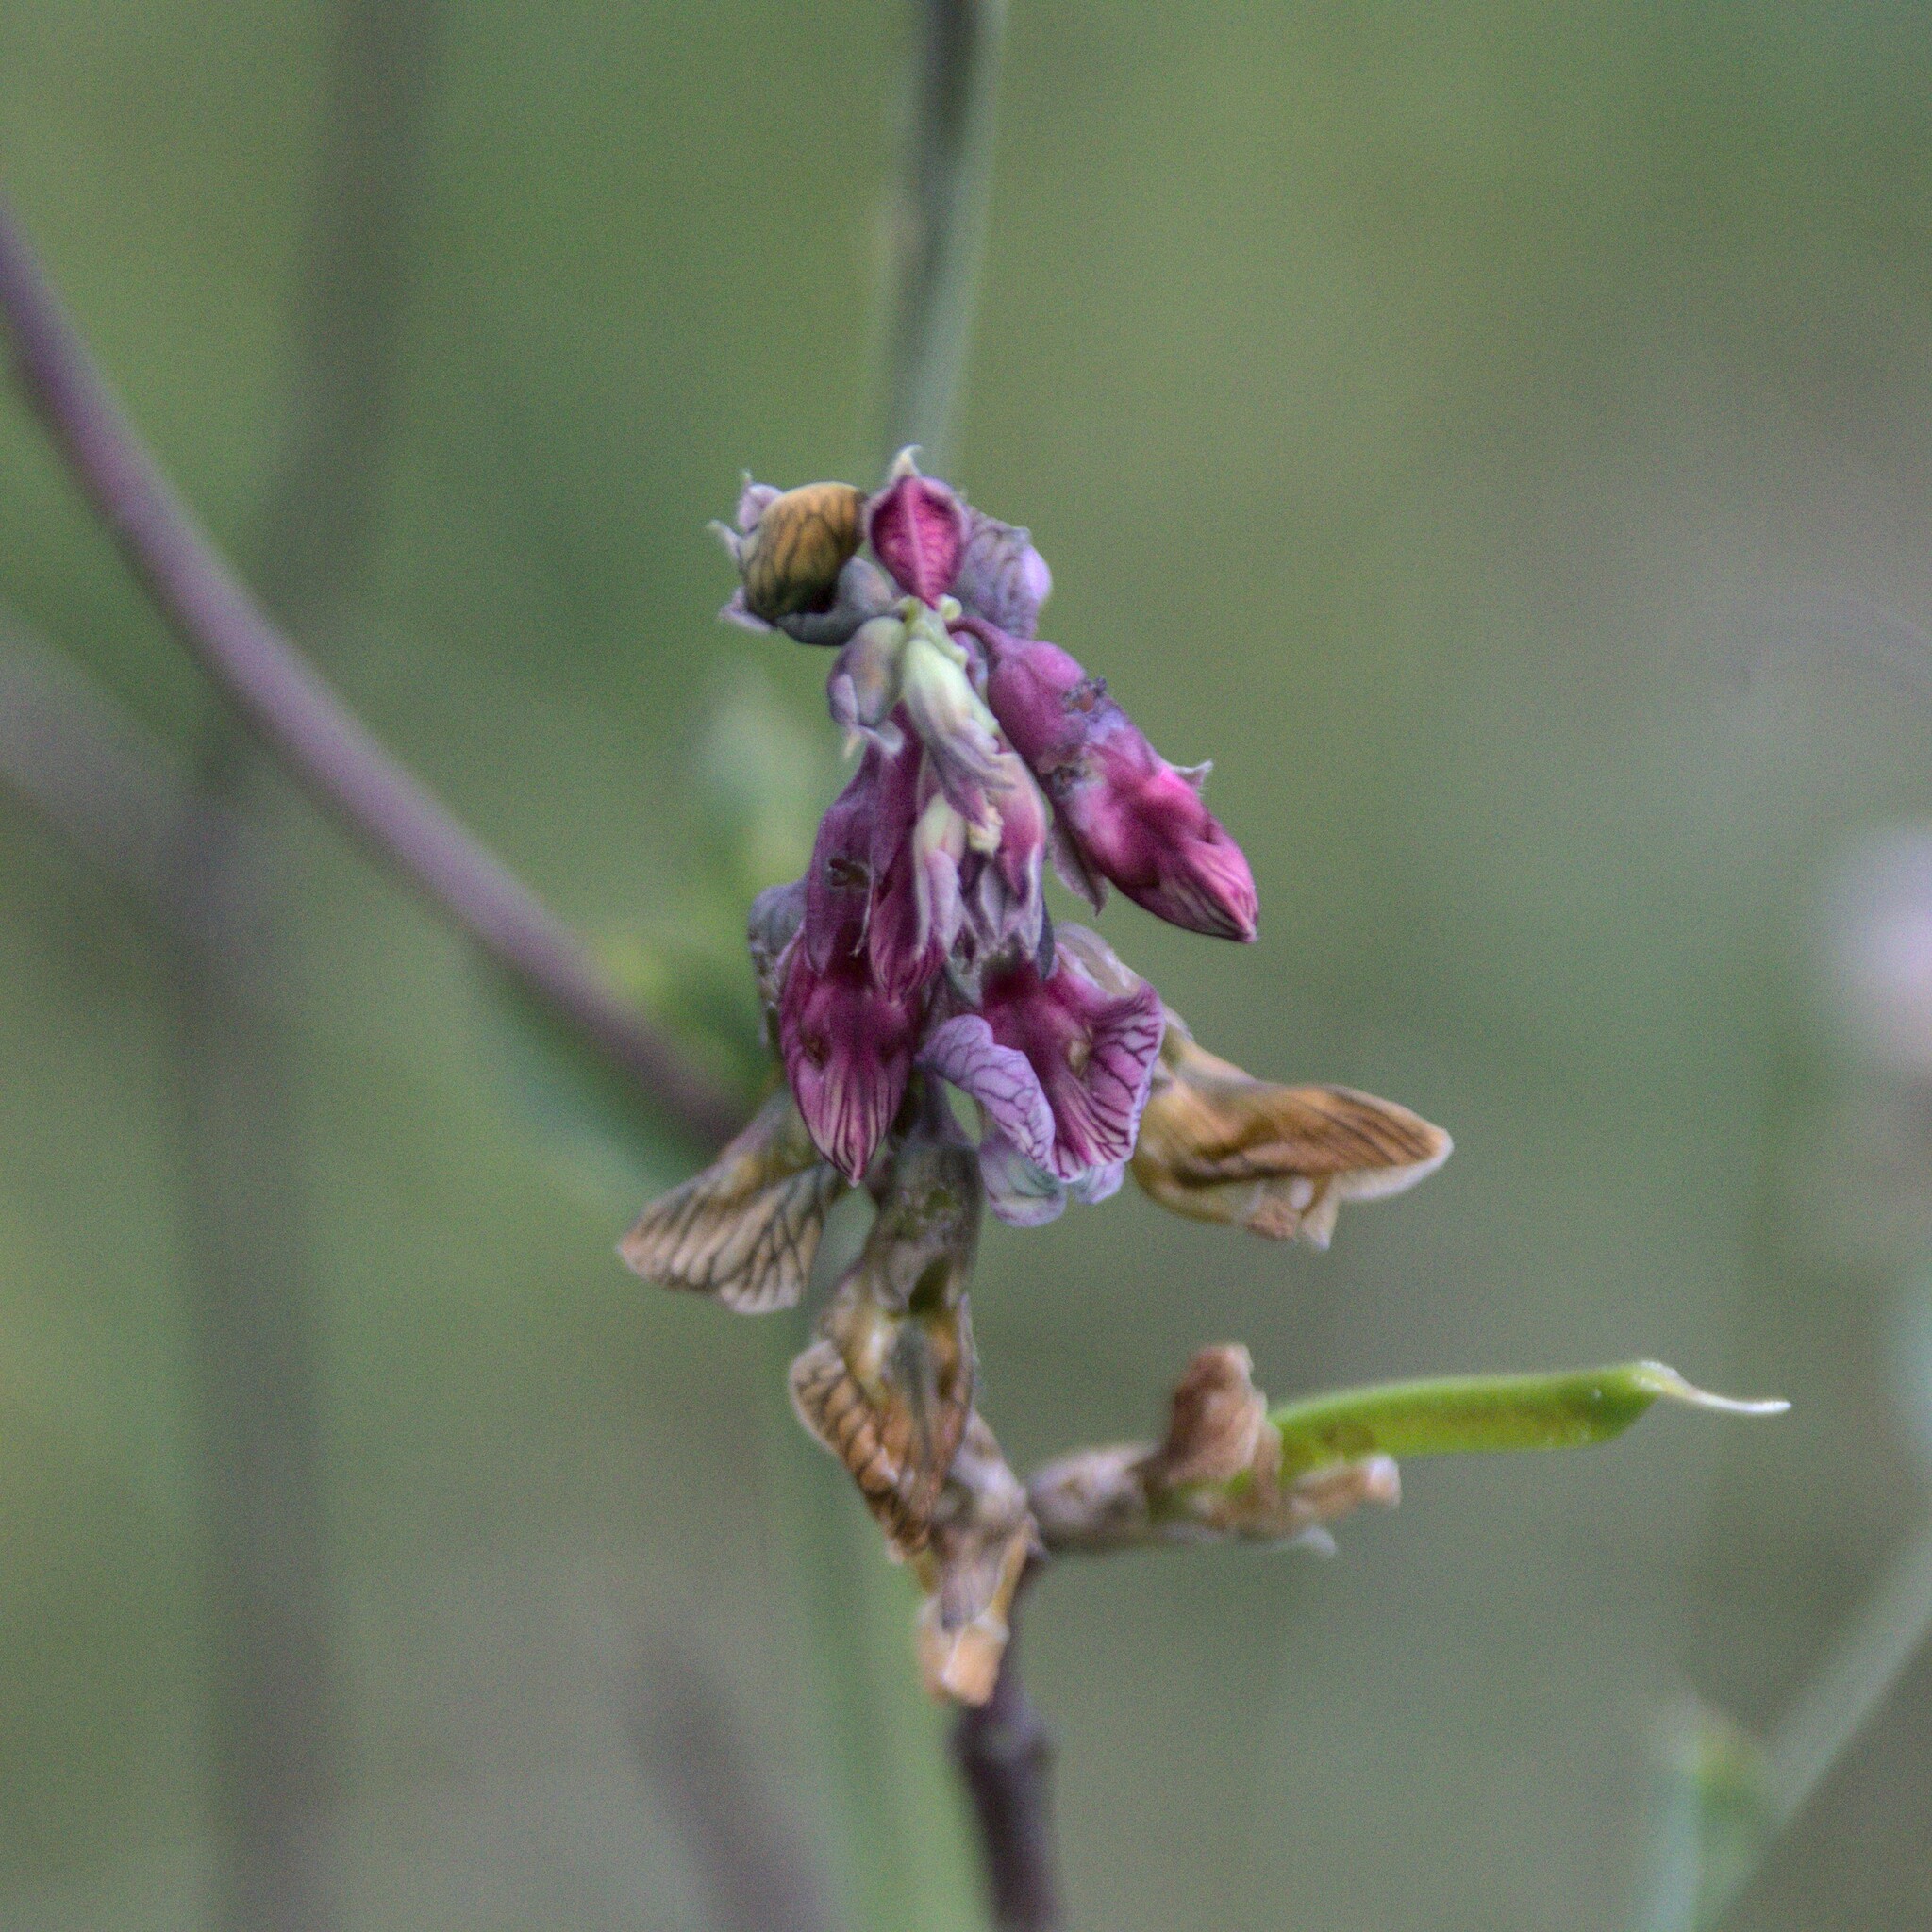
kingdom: Plantae
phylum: Tracheophyta
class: Magnoliopsida
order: Fabales
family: Fabaceae
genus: Lathyrus
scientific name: Lathyrus pisiformis
